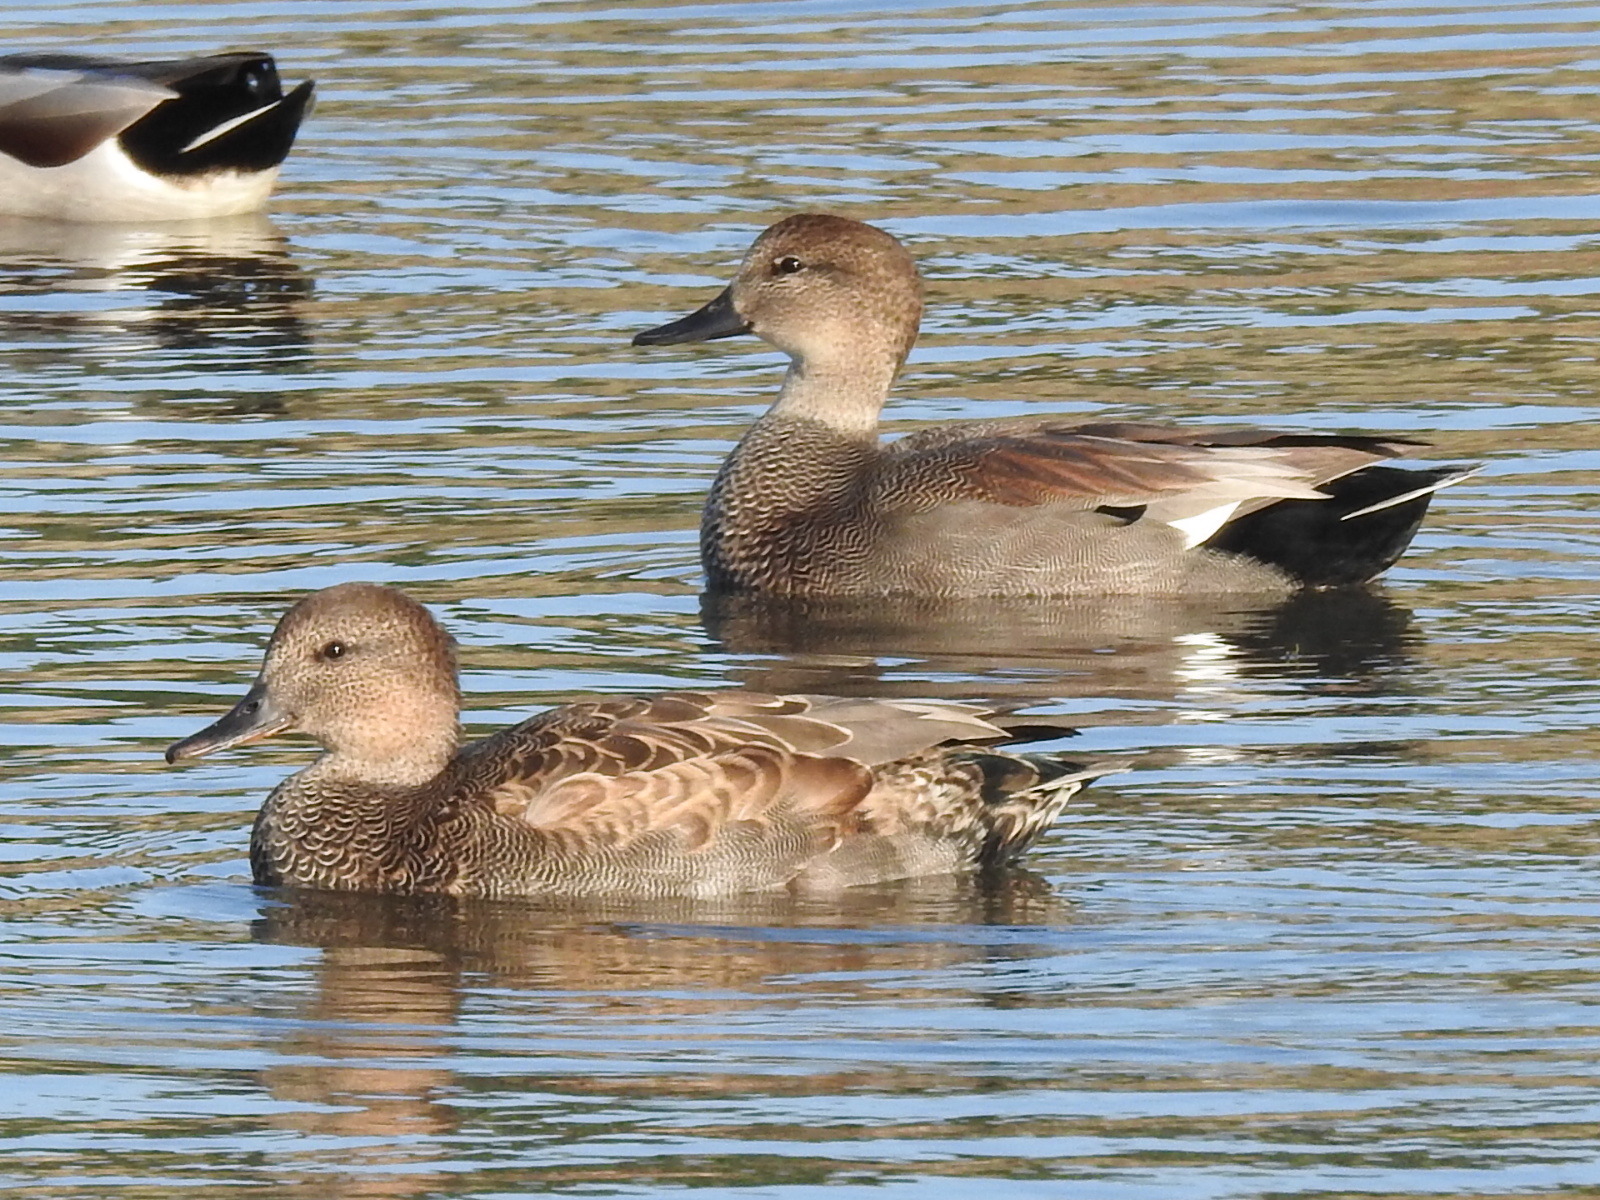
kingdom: Animalia
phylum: Chordata
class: Aves
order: Anseriformes
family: Anatidae
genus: Mareca
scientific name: Mareca strepera
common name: Gadwall
